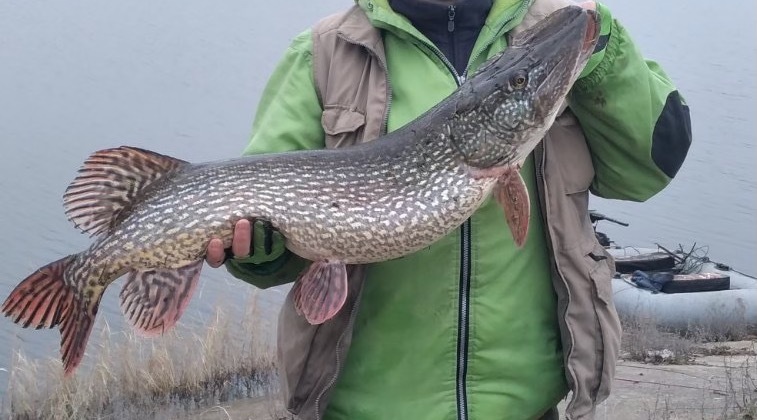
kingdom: Animalia
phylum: Chordata
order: Esociformes
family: Esocidae
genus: Esox
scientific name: Esox lucius
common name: Northern pike
